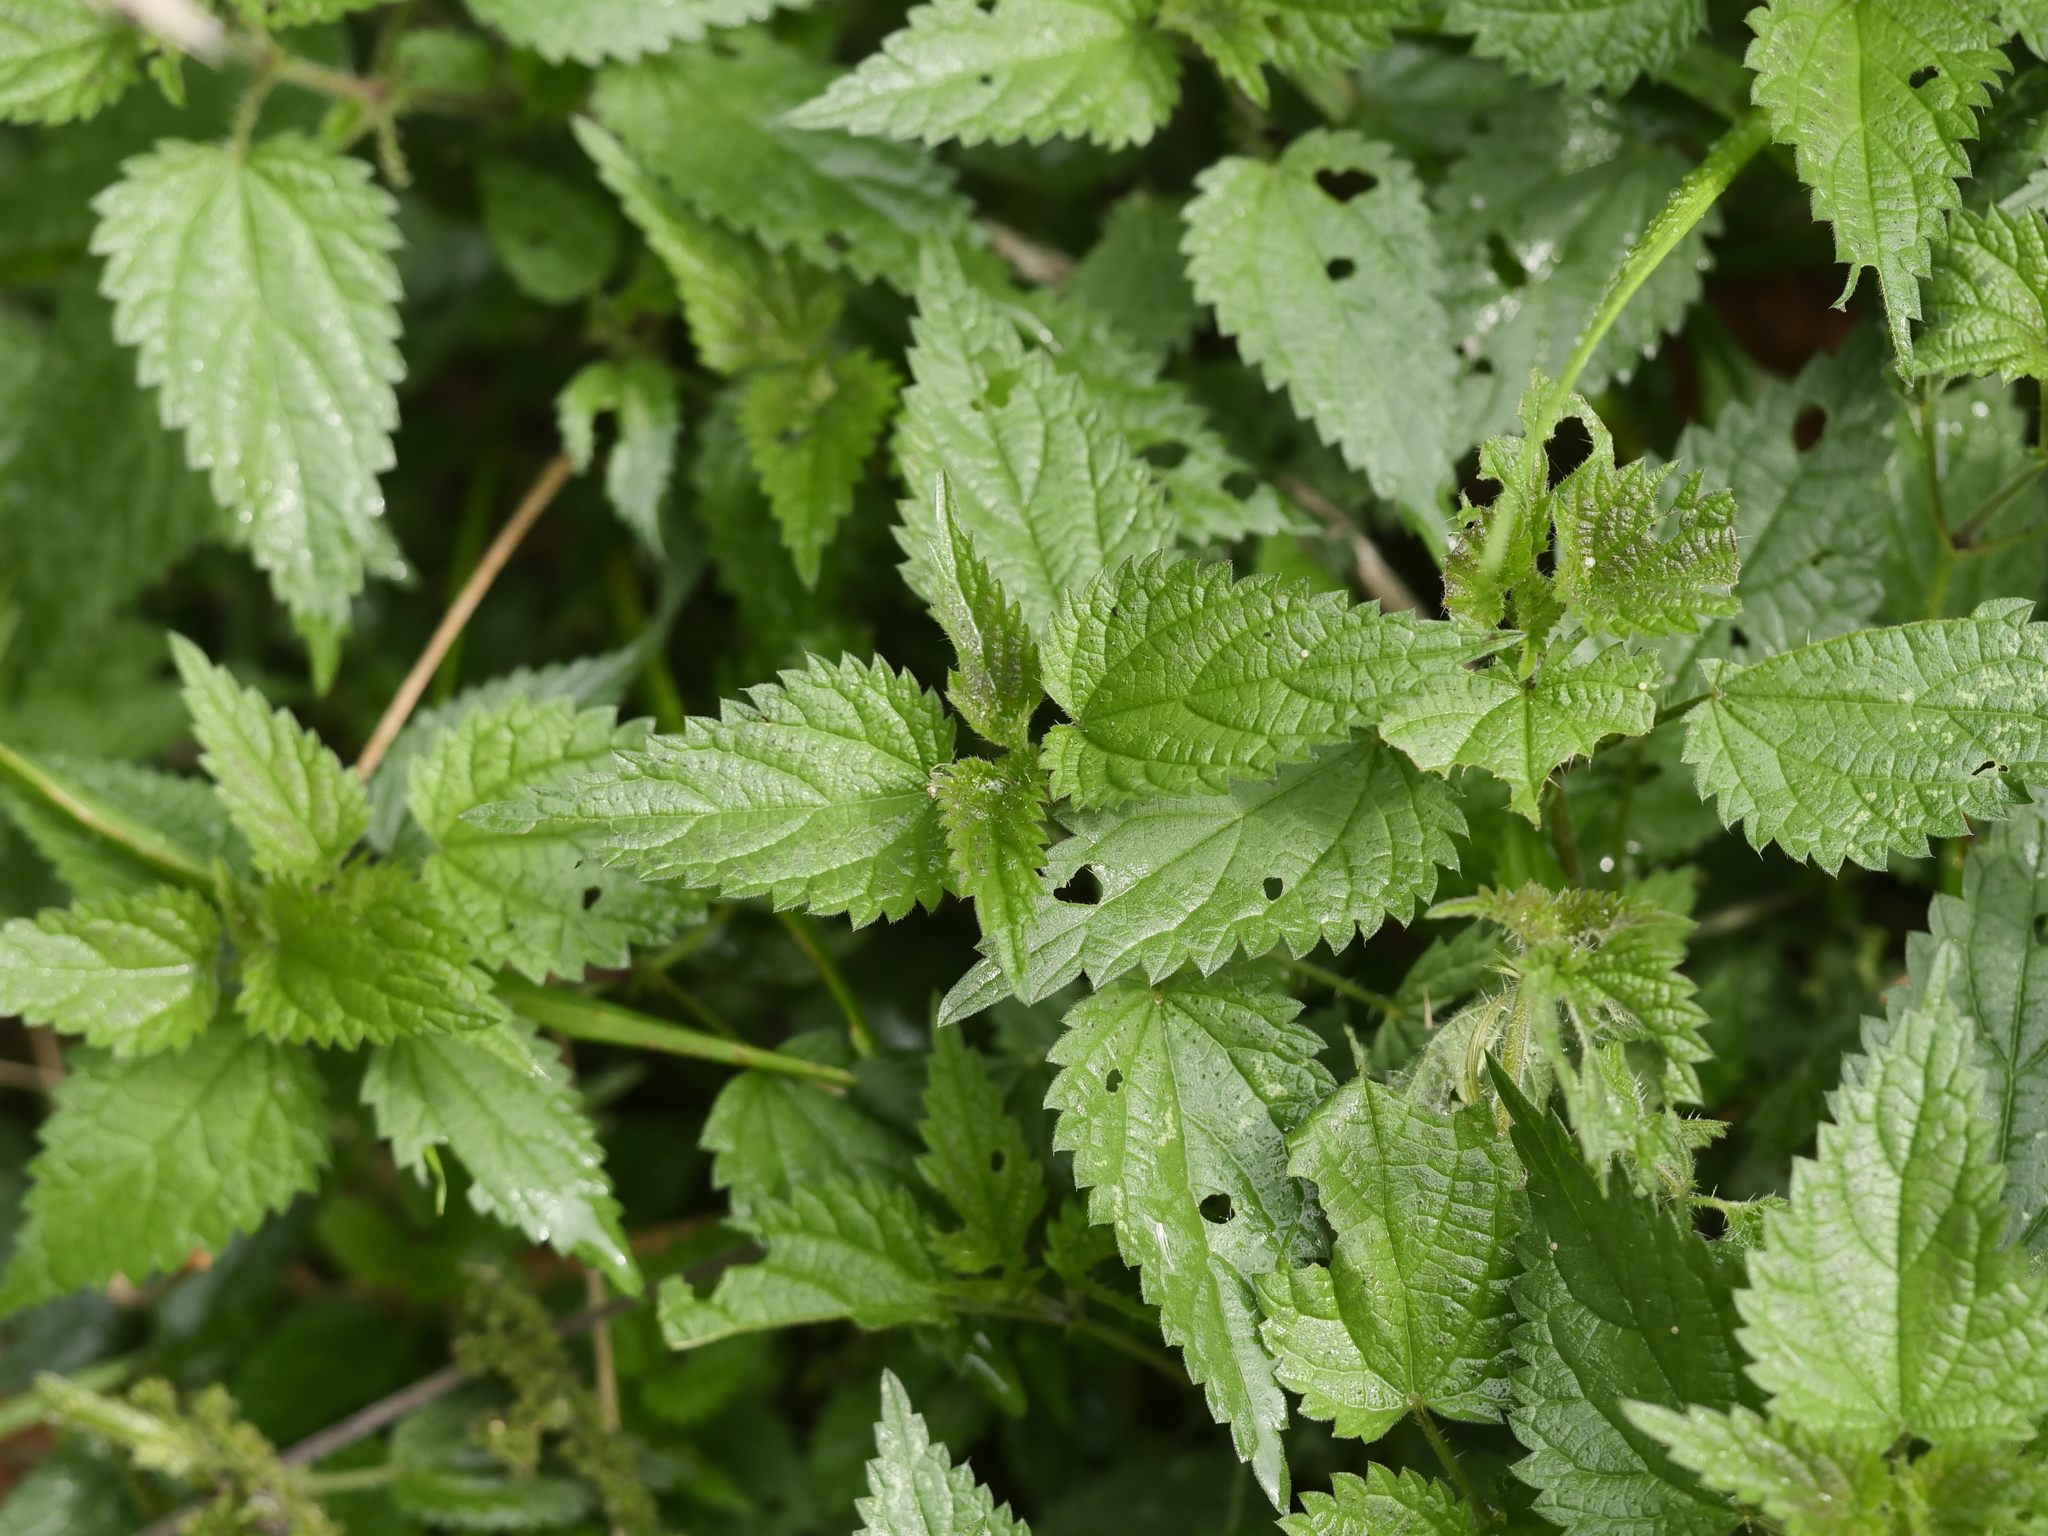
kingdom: Plantae
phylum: Tracheophyta
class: Magnoliopsida
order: Rosales
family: Urticaceae
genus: Urtica
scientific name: Urtica dioica
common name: Common nettle
